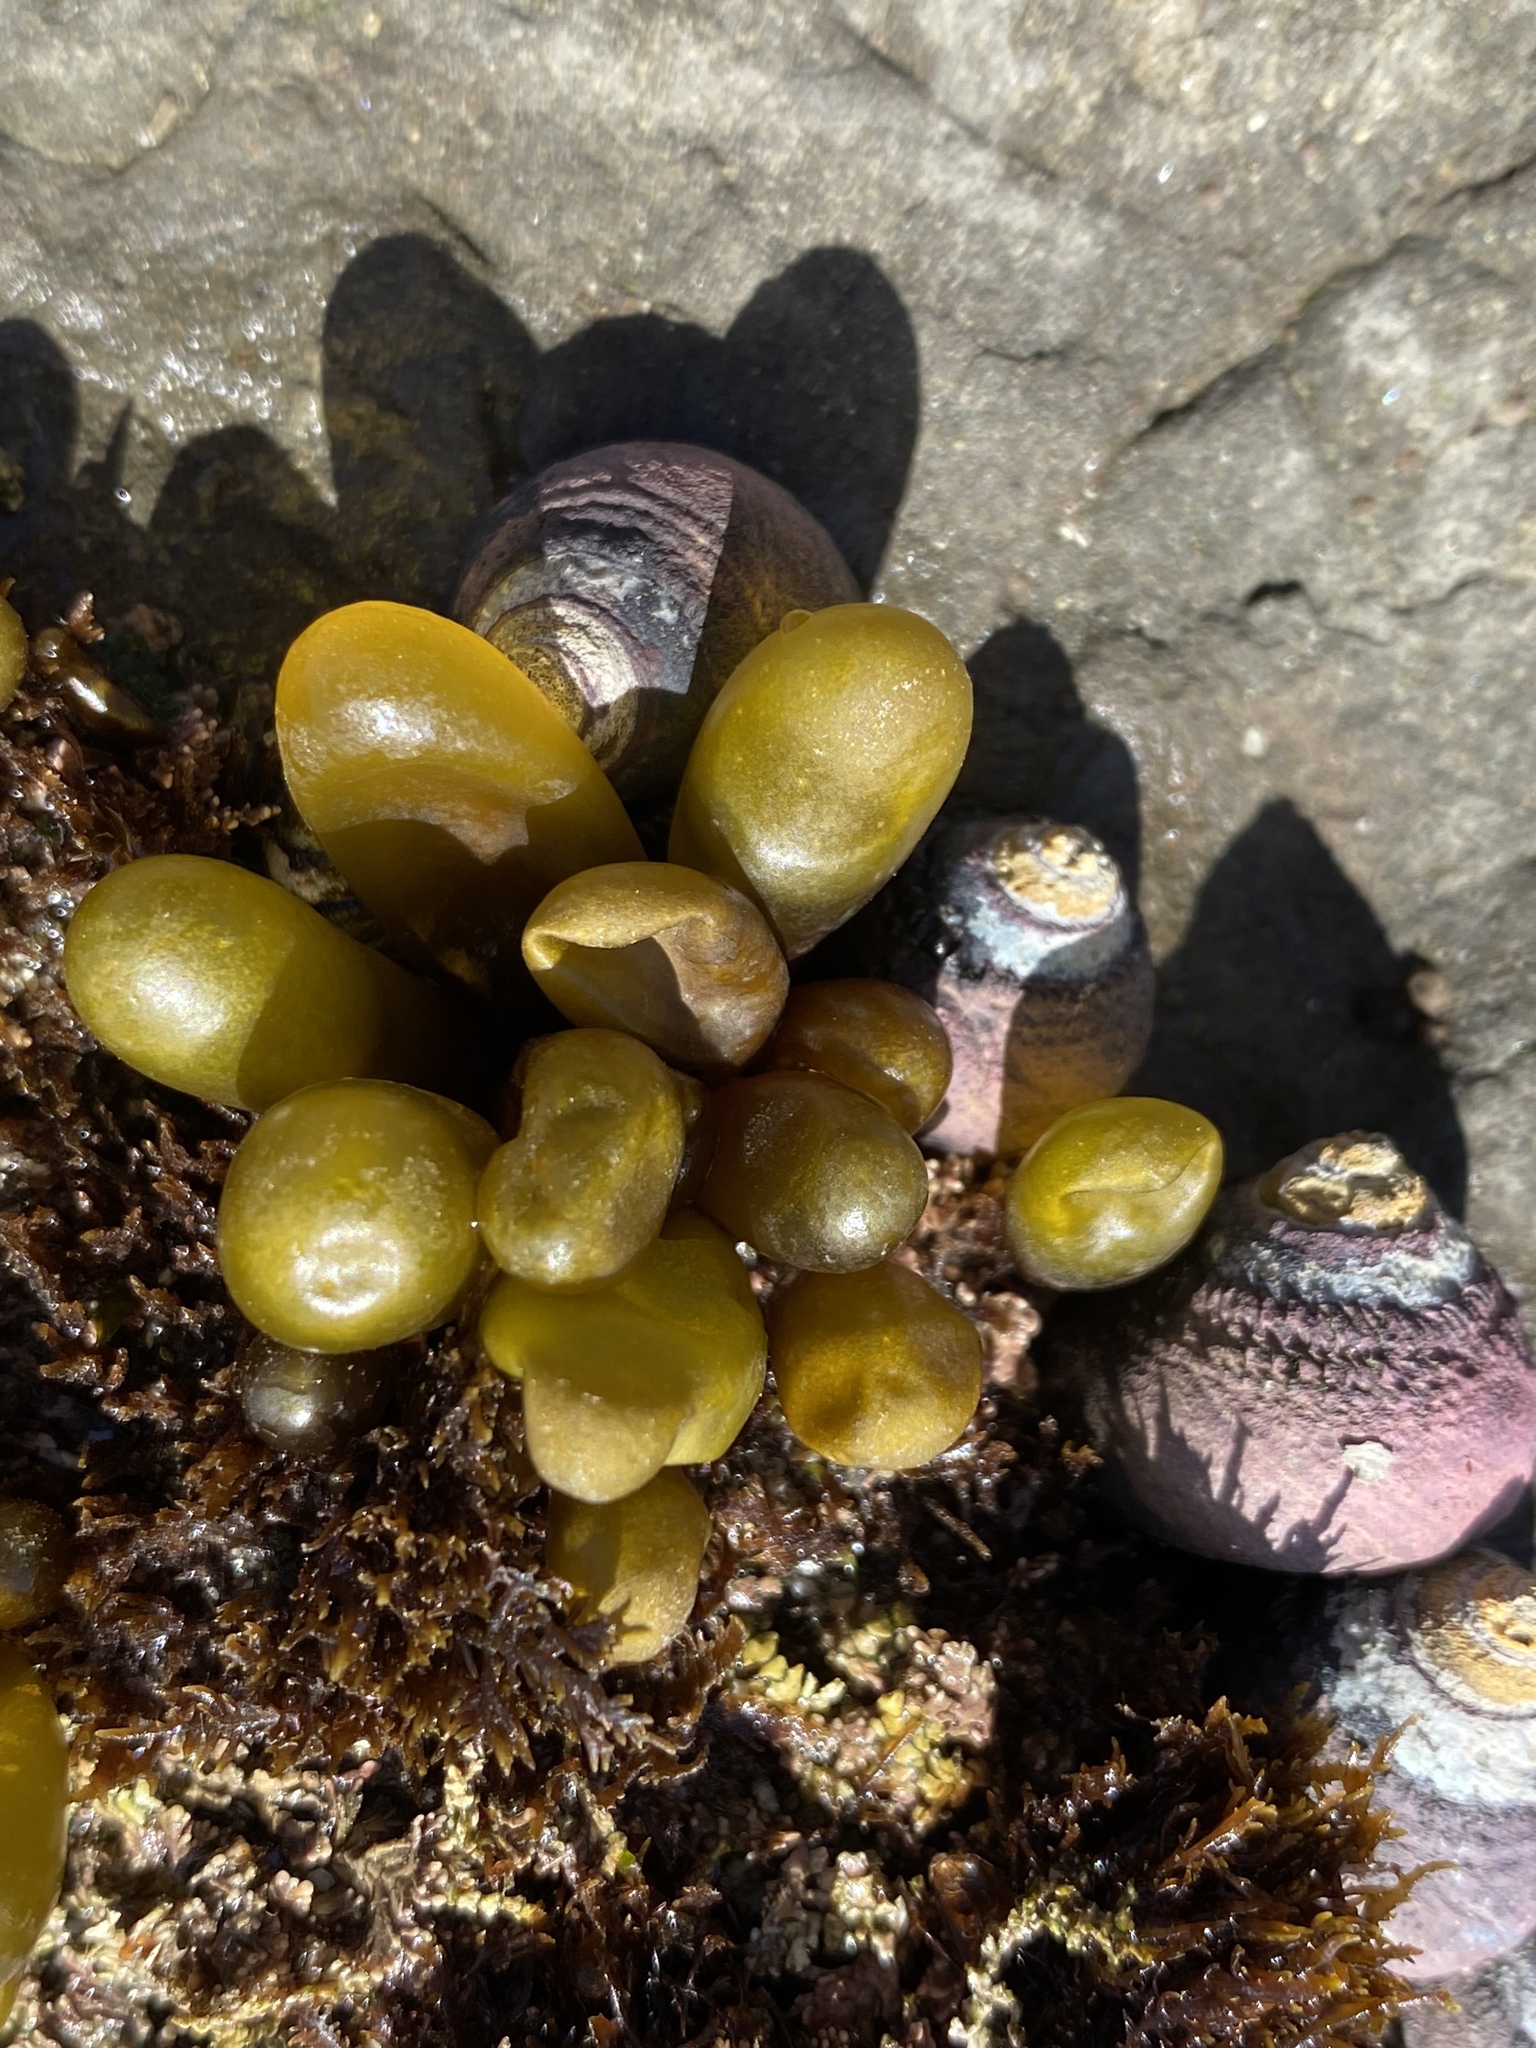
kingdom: Plantae
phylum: Rhodophyta
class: Florideophyceae
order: Palmariales
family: Palmariaceae
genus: Halosaccion
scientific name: Halosaccion glandiforme
